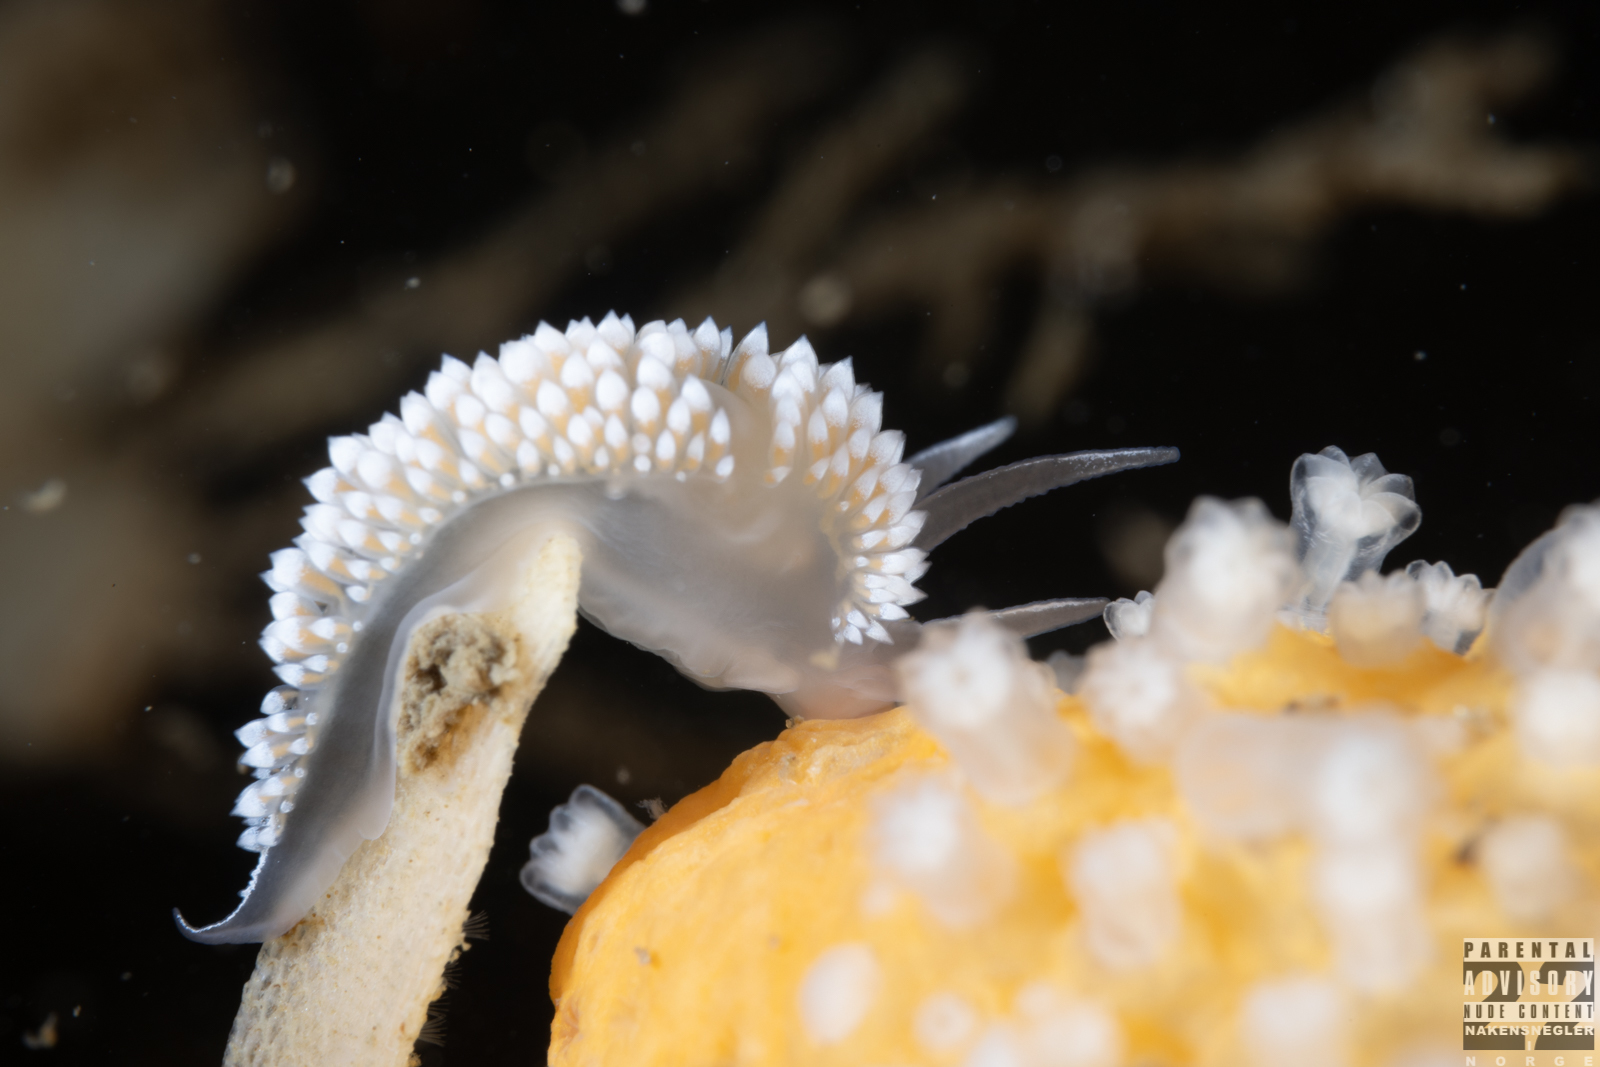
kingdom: Animalia
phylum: Mollusca
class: Gastropoda
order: Nudibranchia
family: Coryphellidae
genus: Coryphella
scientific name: Coryphella verrucosa
